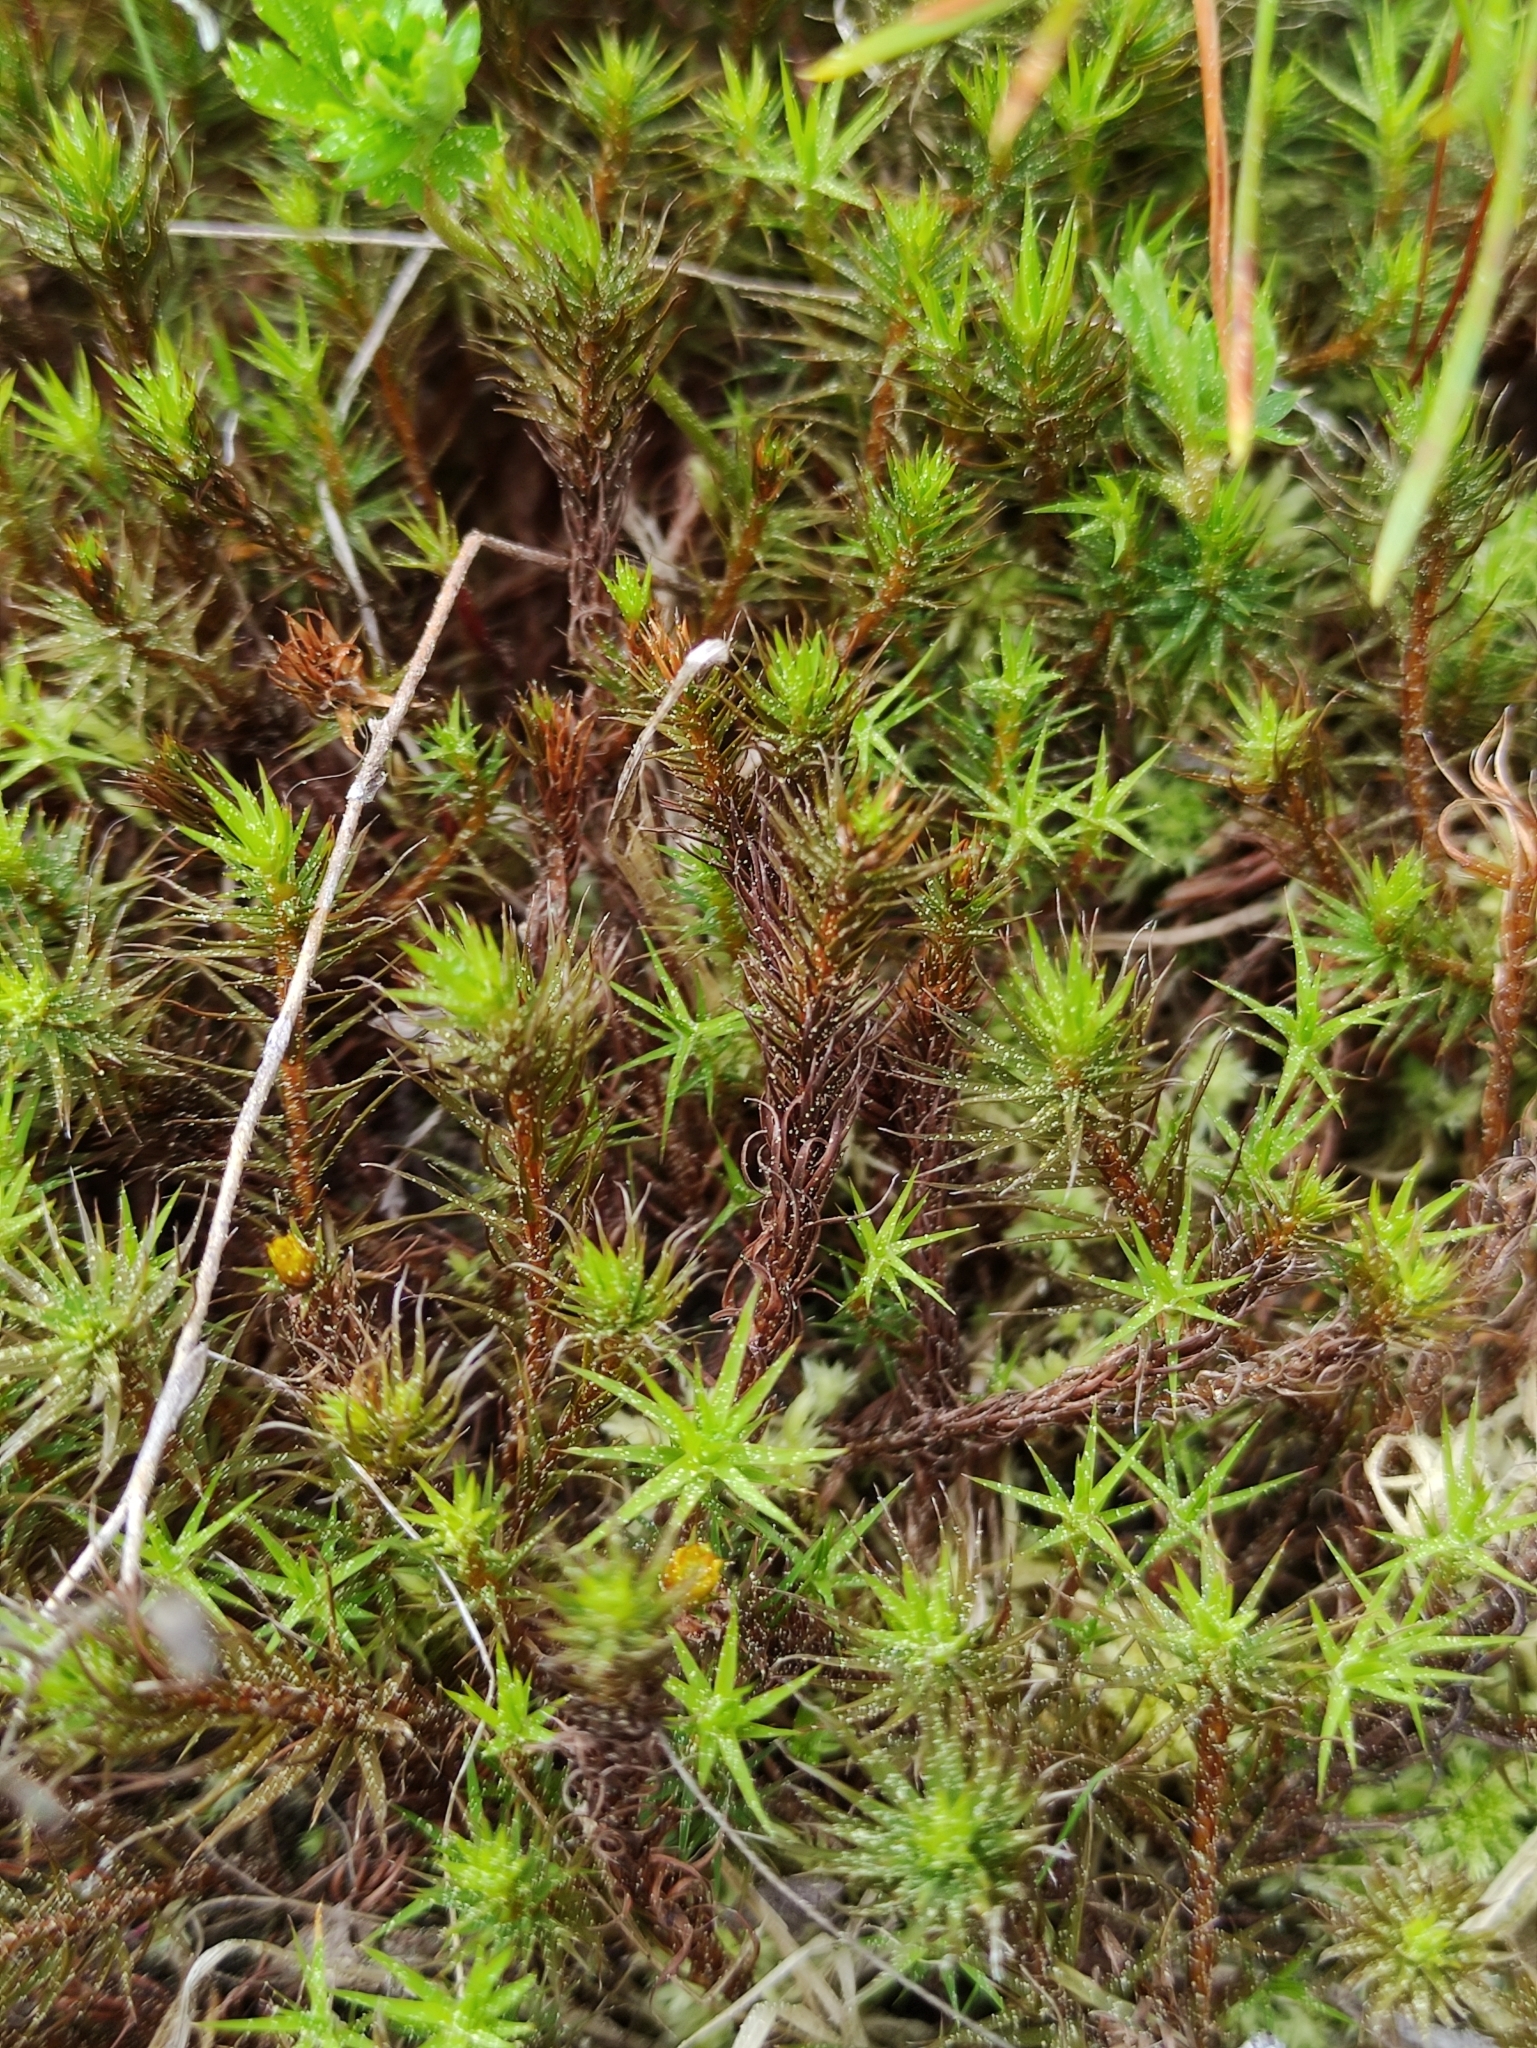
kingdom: Plantae
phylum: Bryophyta
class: Polytrichopsida
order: Polytrichales
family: Polytrichaceae
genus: Polytrichum
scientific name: Polytrichum commune
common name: Common haircap
